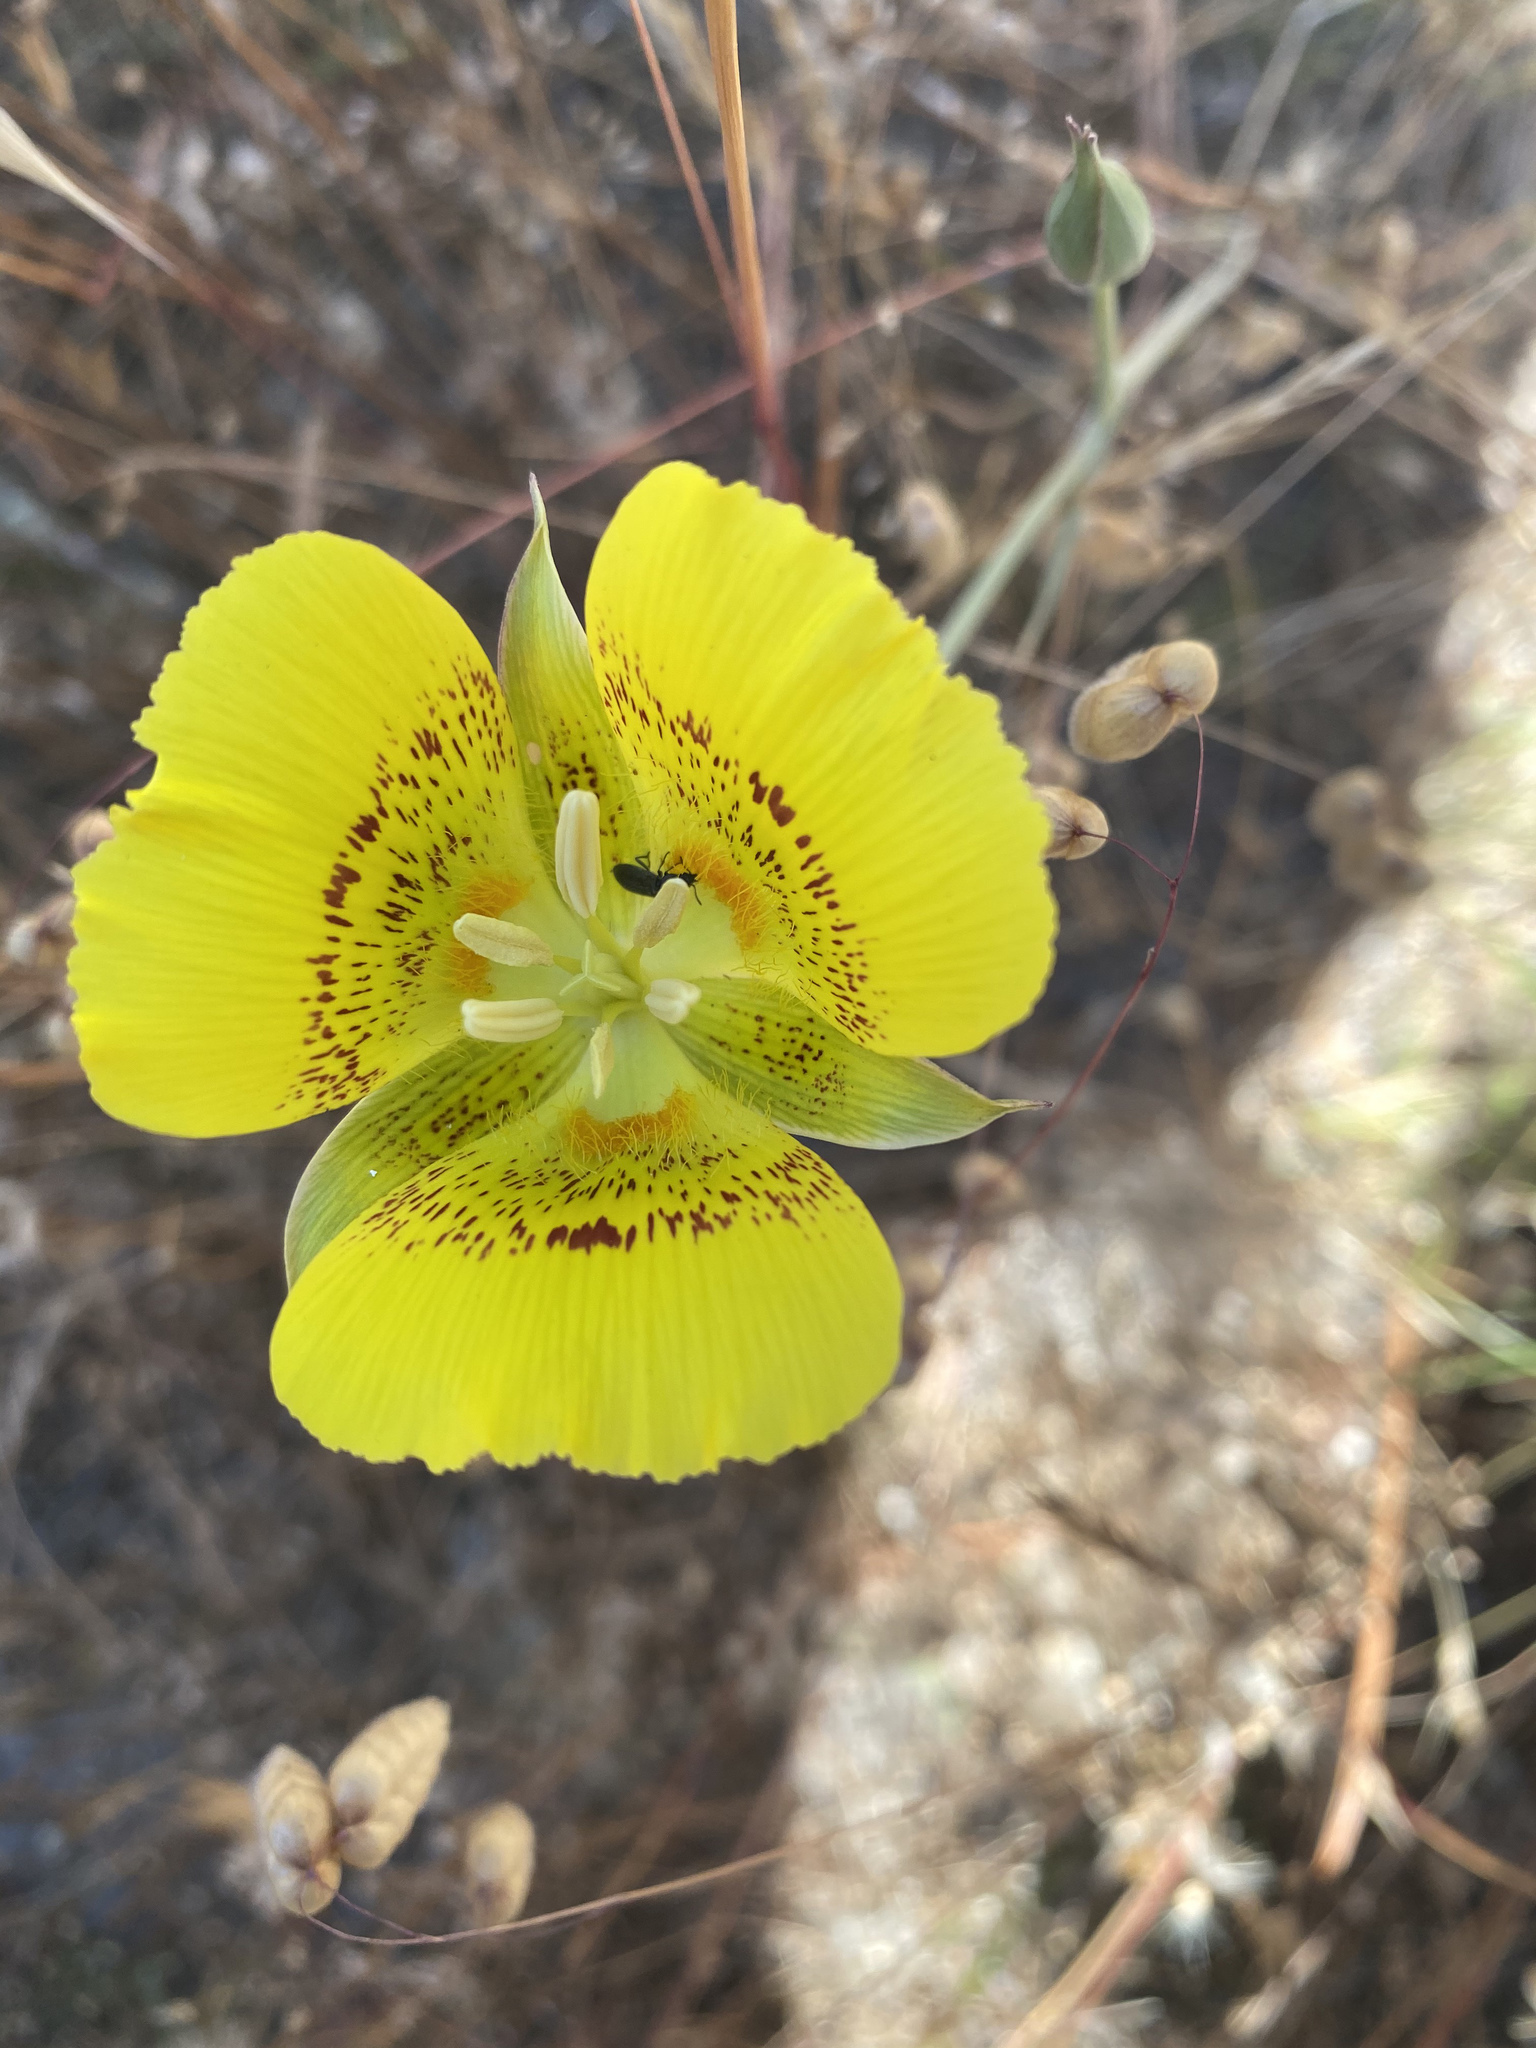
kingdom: Plantae
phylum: Tracheophyta
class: Liliopsida
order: Liliales
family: Liliaceae
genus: Calochortus
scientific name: Calochortus luteus
